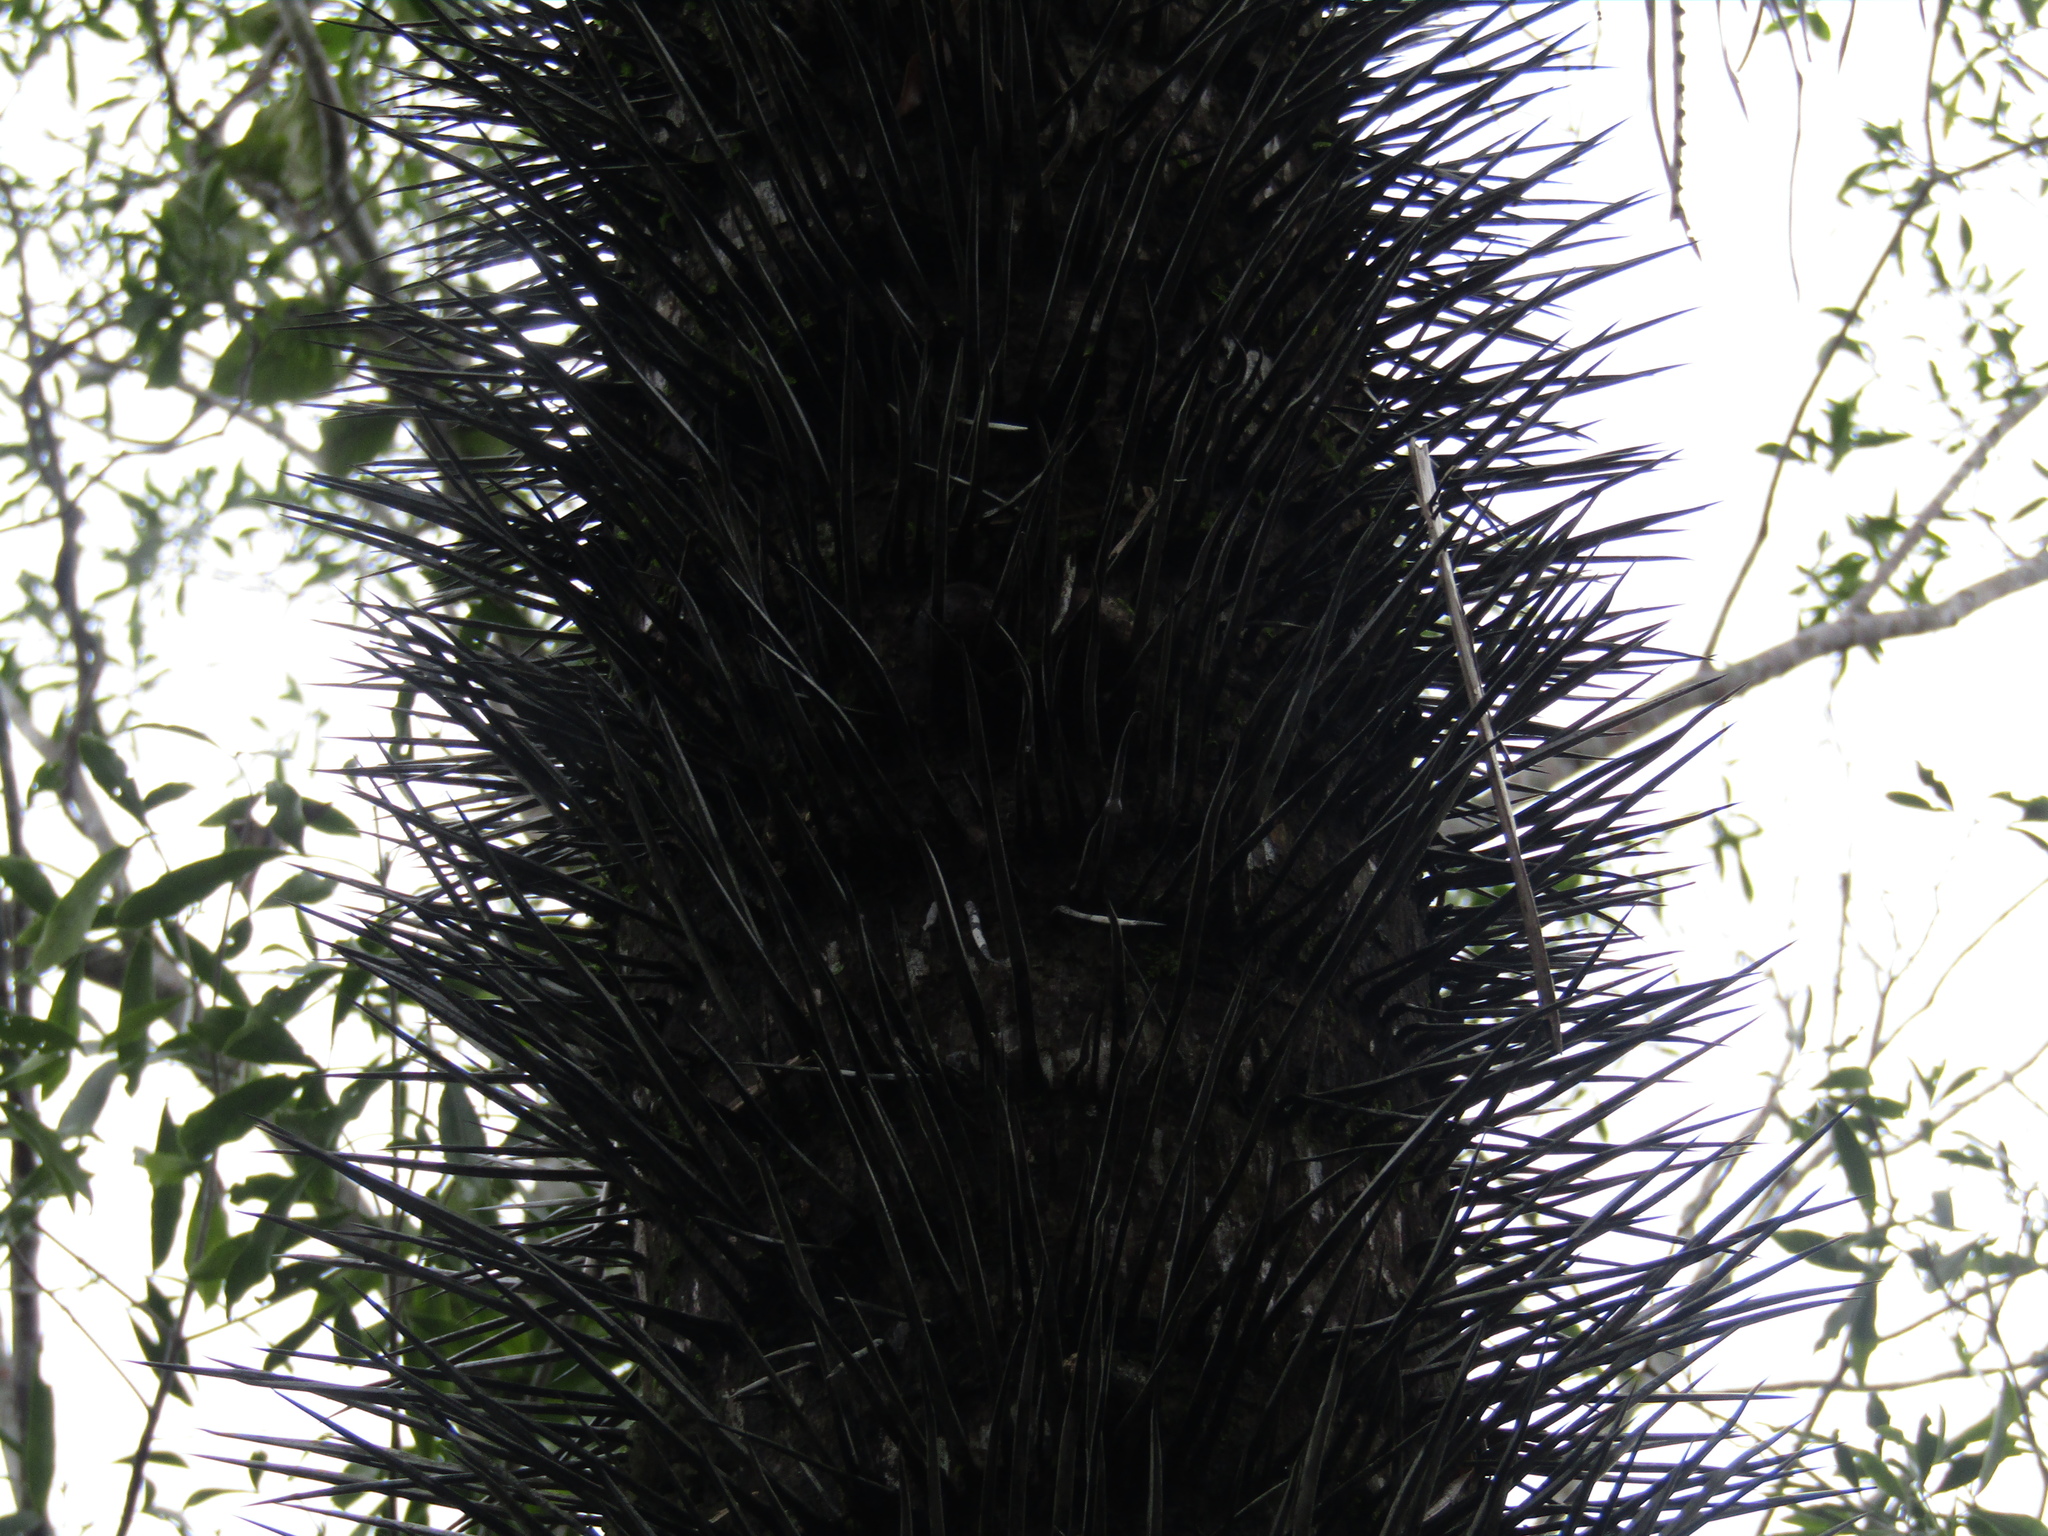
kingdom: Plantae
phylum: Tracheophyta
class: Liliopsida
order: Arecales
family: Arecaceae
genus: Acrocomia
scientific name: Acrocomia aculeata
